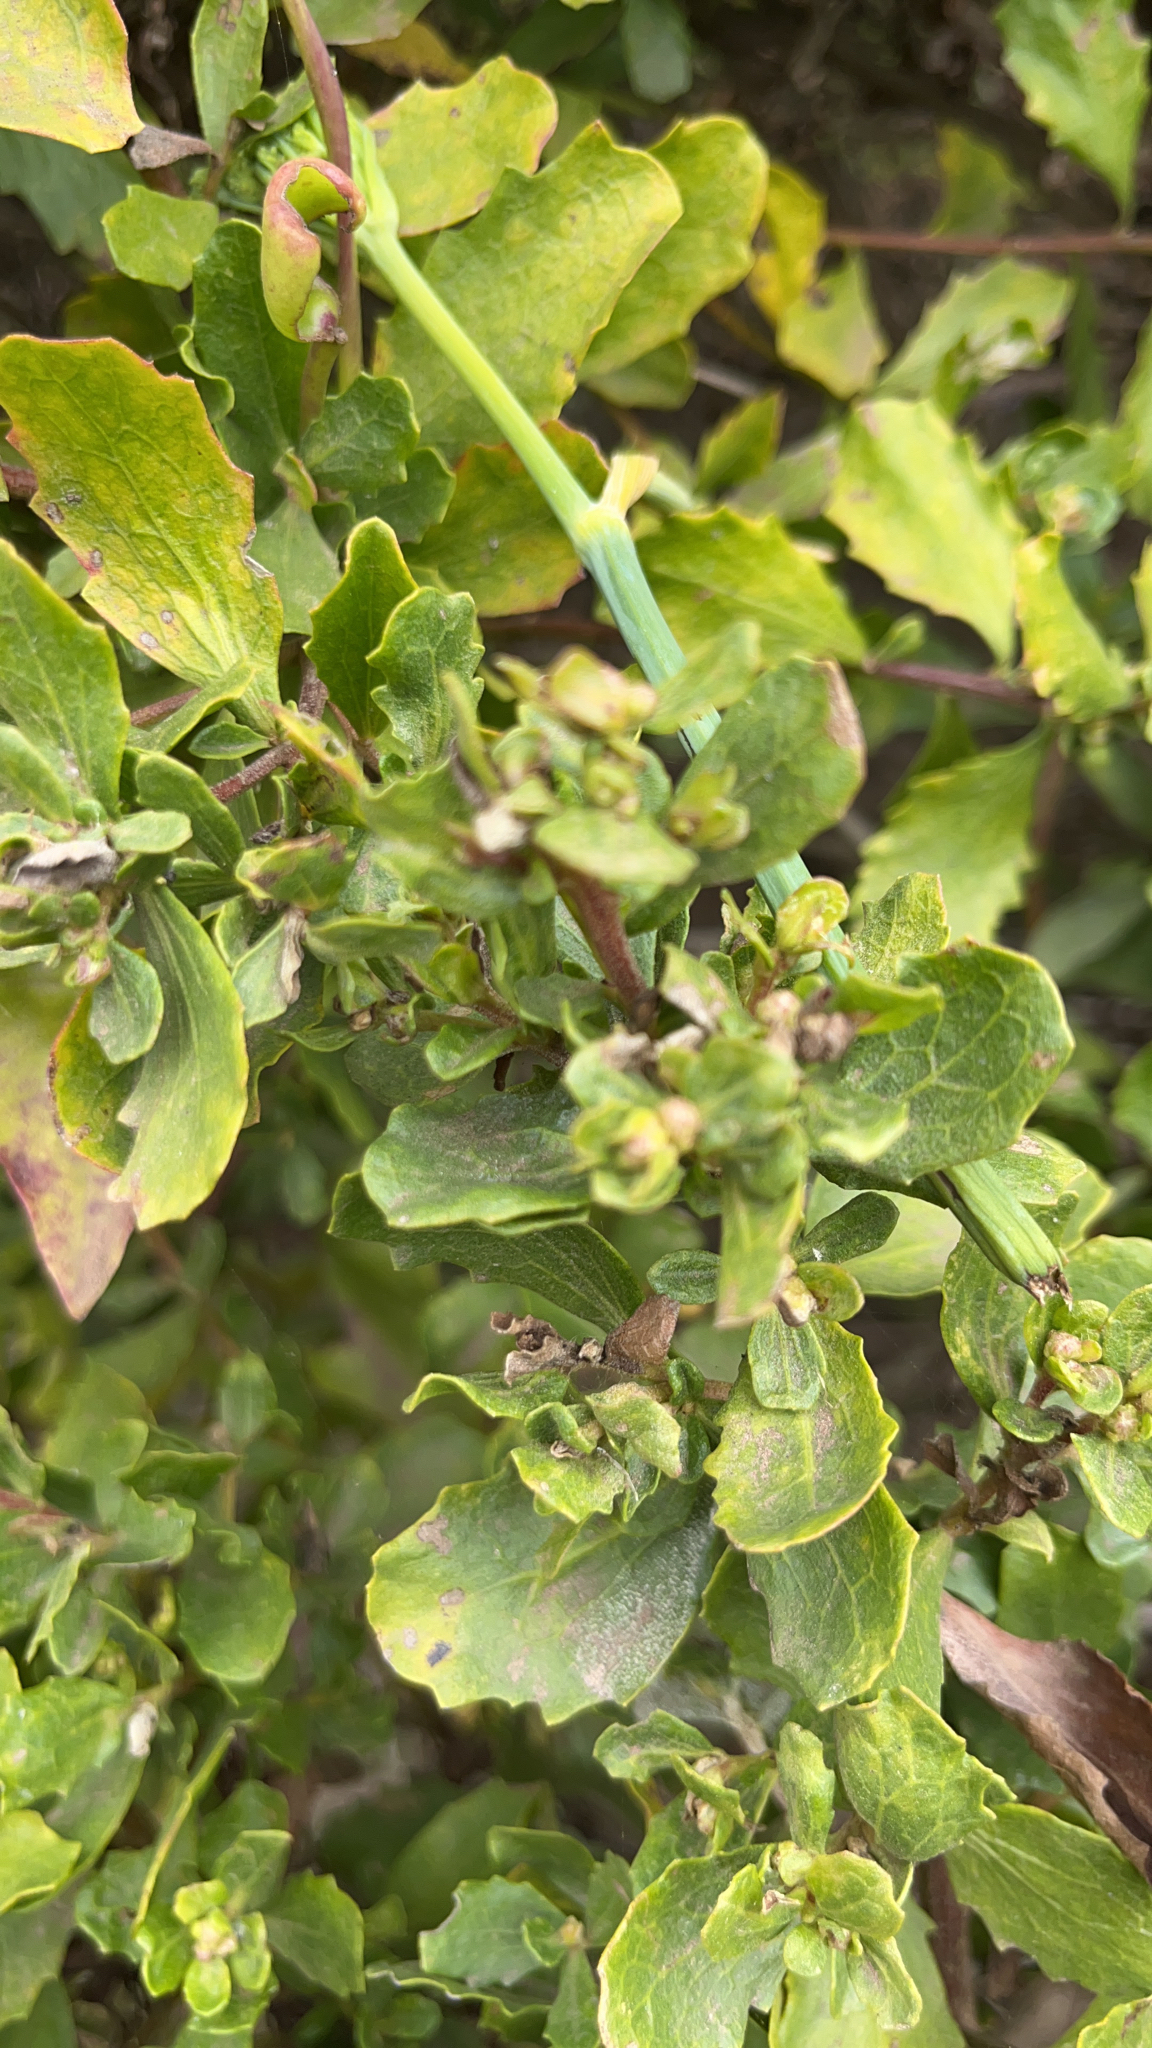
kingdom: Plantae
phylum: Tracheophyta
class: Magnoliopsida
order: Asterales
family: Asteraceae
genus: Baccharis
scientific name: Baccharis pilularis
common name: Coyotebrush
